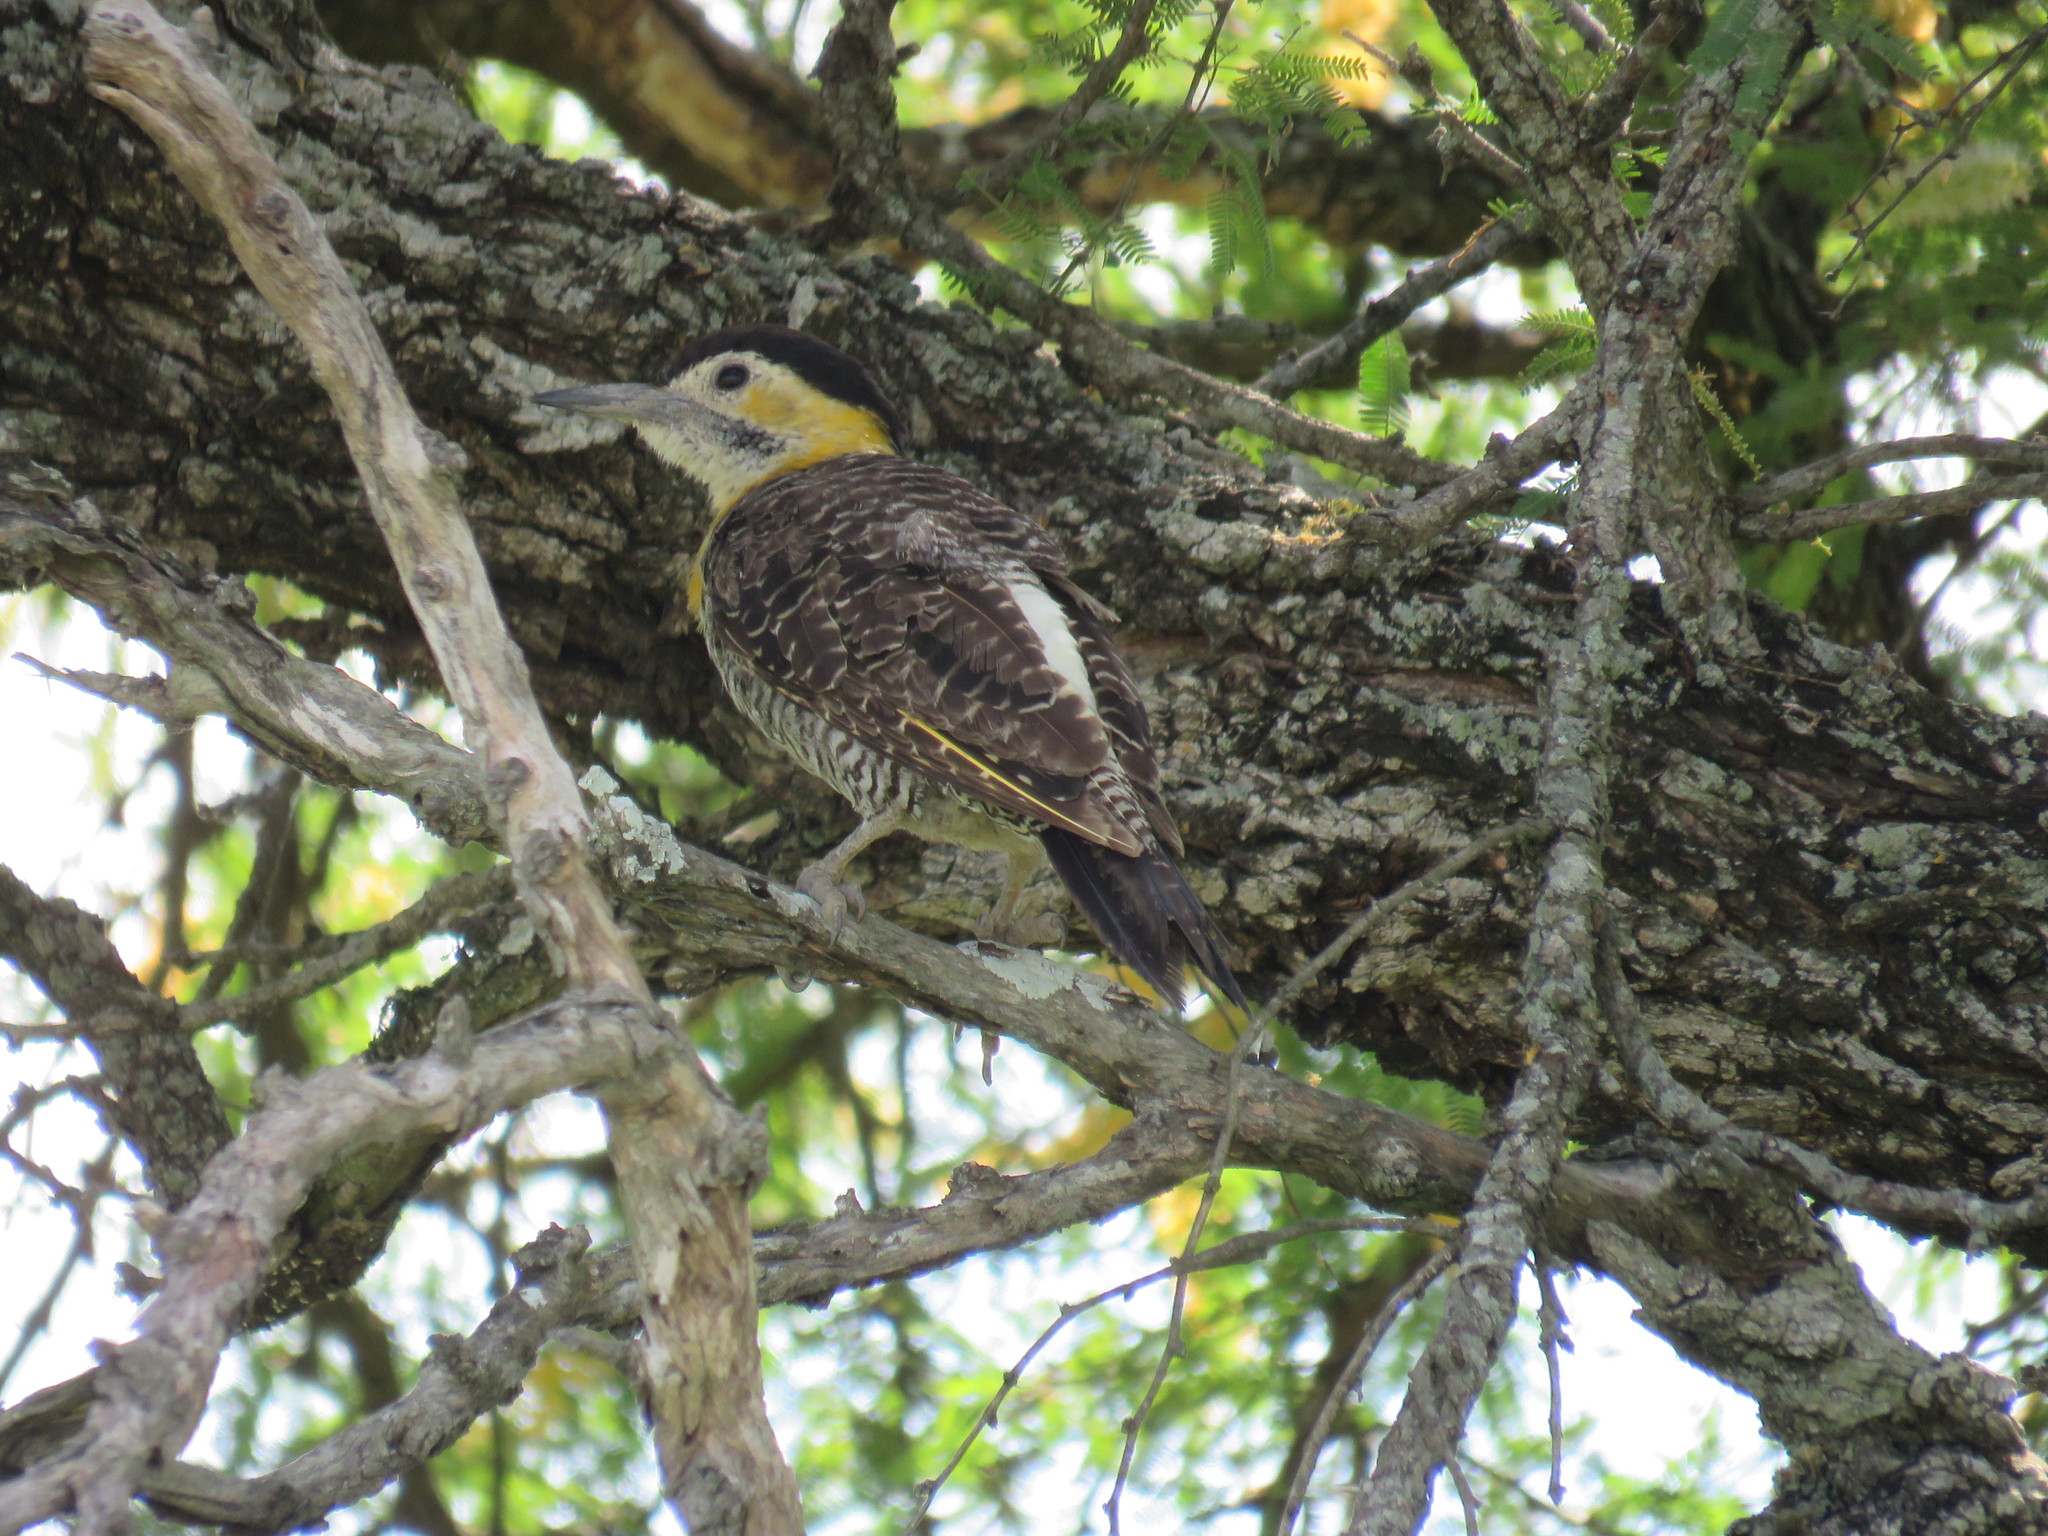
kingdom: Animalia
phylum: Chordata
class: Aves
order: Piciformes
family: Picidae
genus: Colaptes
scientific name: Colaptes campestris
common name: Campo flicker
